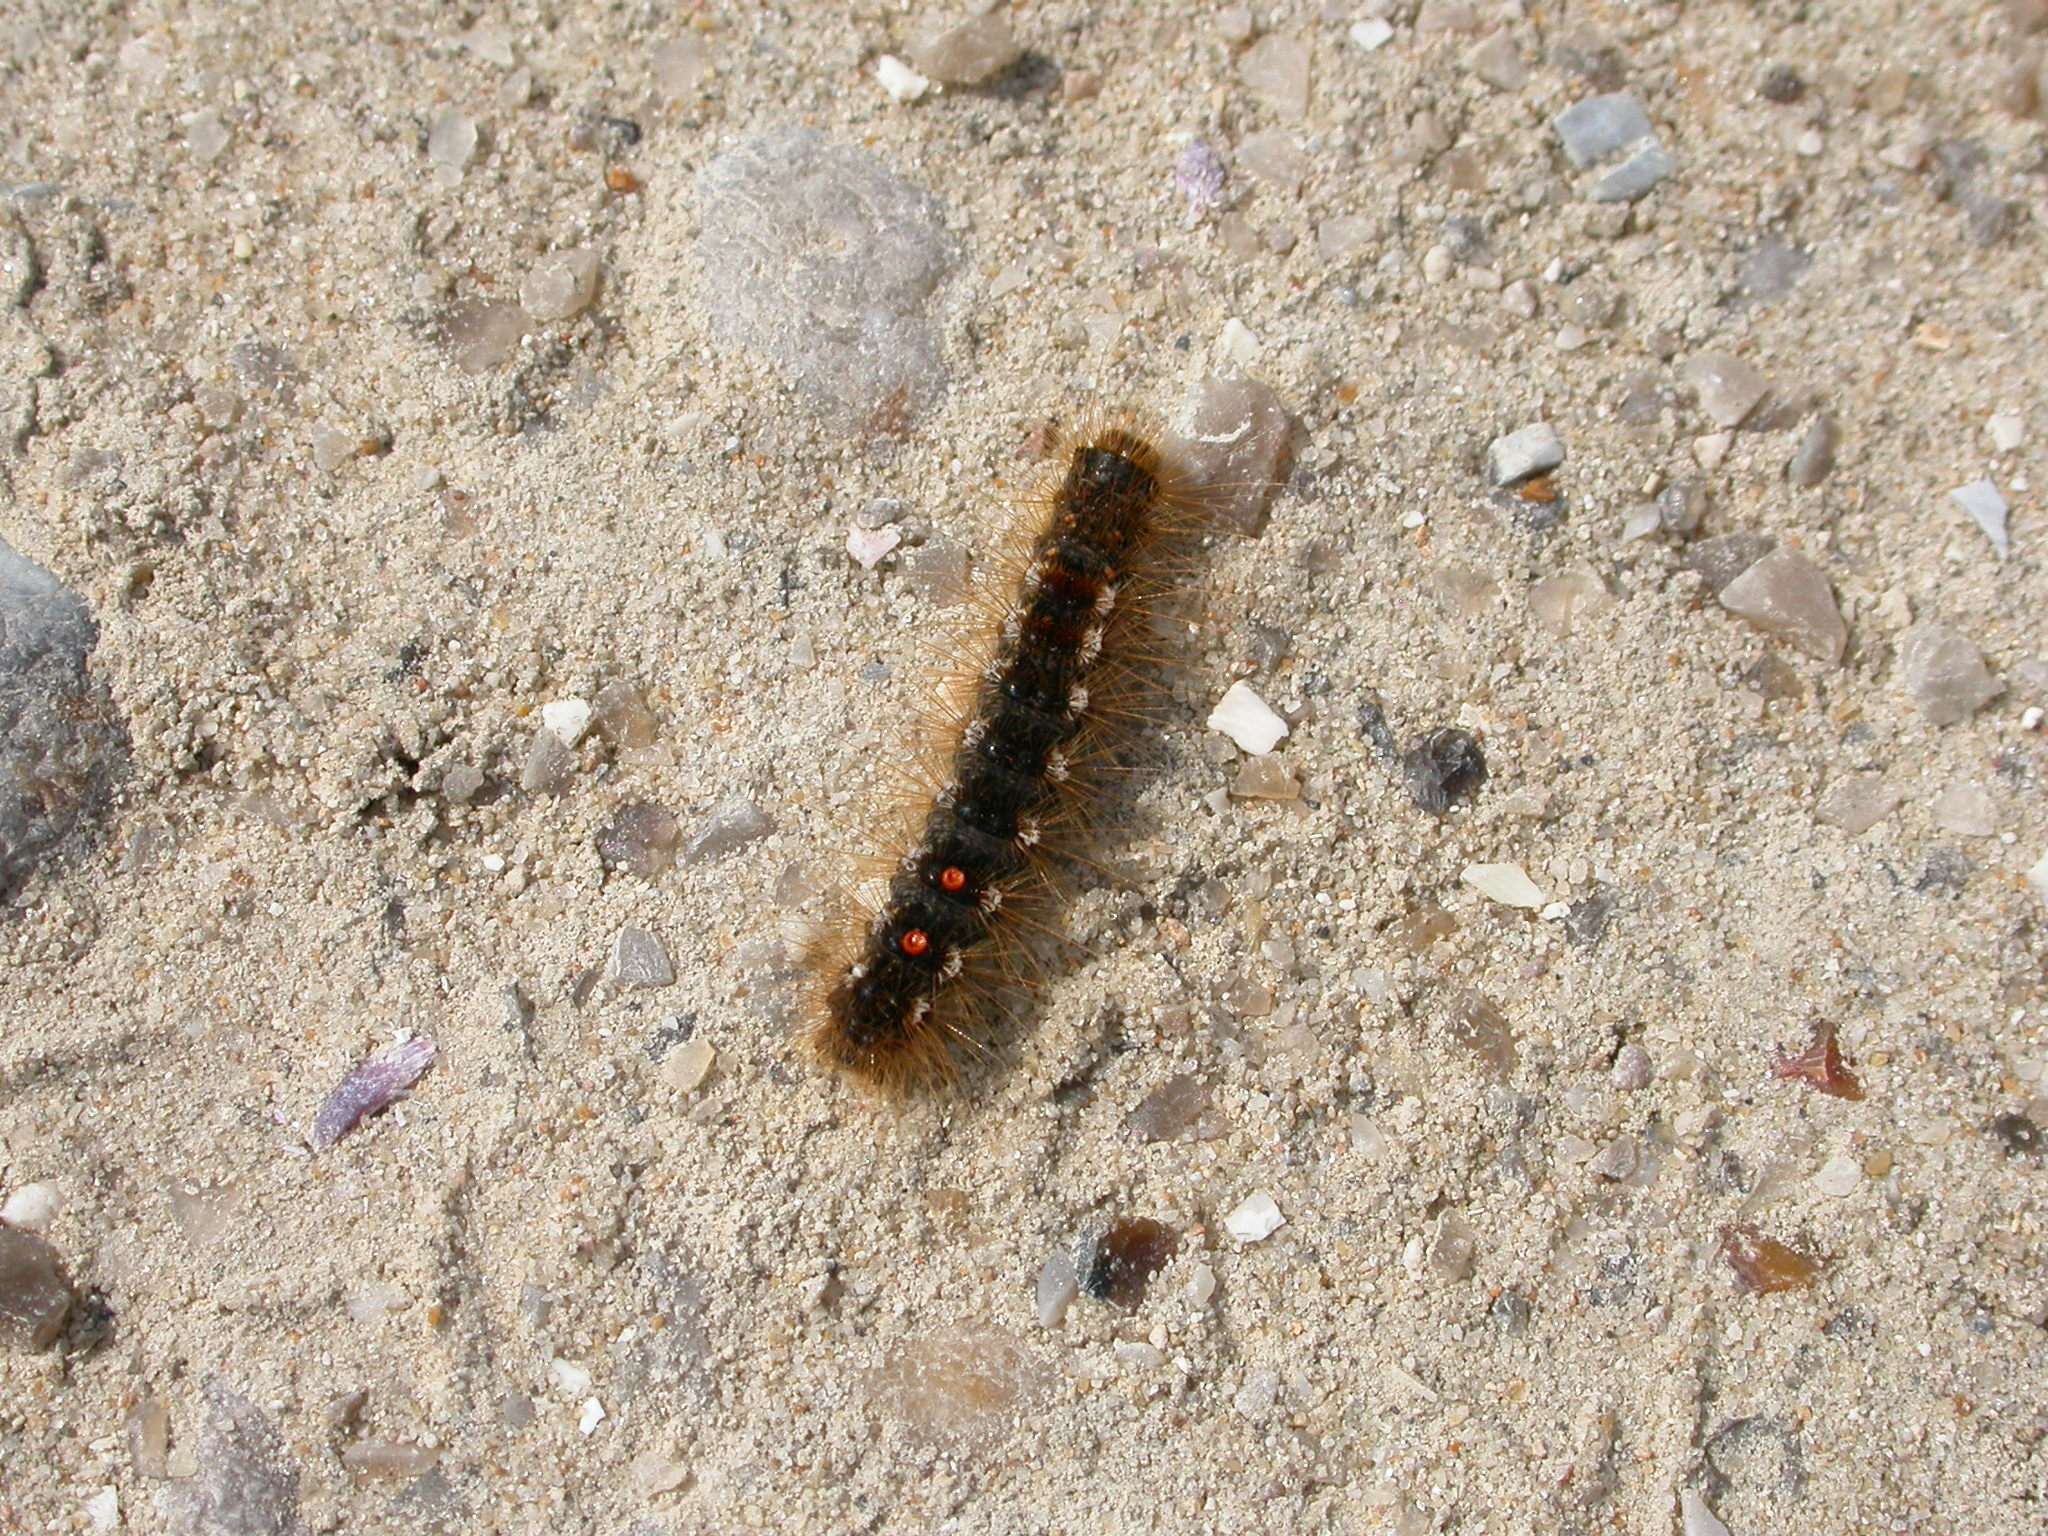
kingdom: Animalia
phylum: Arthropoda
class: Insecta
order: Lepidoptera
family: Erebidae
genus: Euproctis
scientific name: Euproctis chrysorrhoea
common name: Brown-tail
